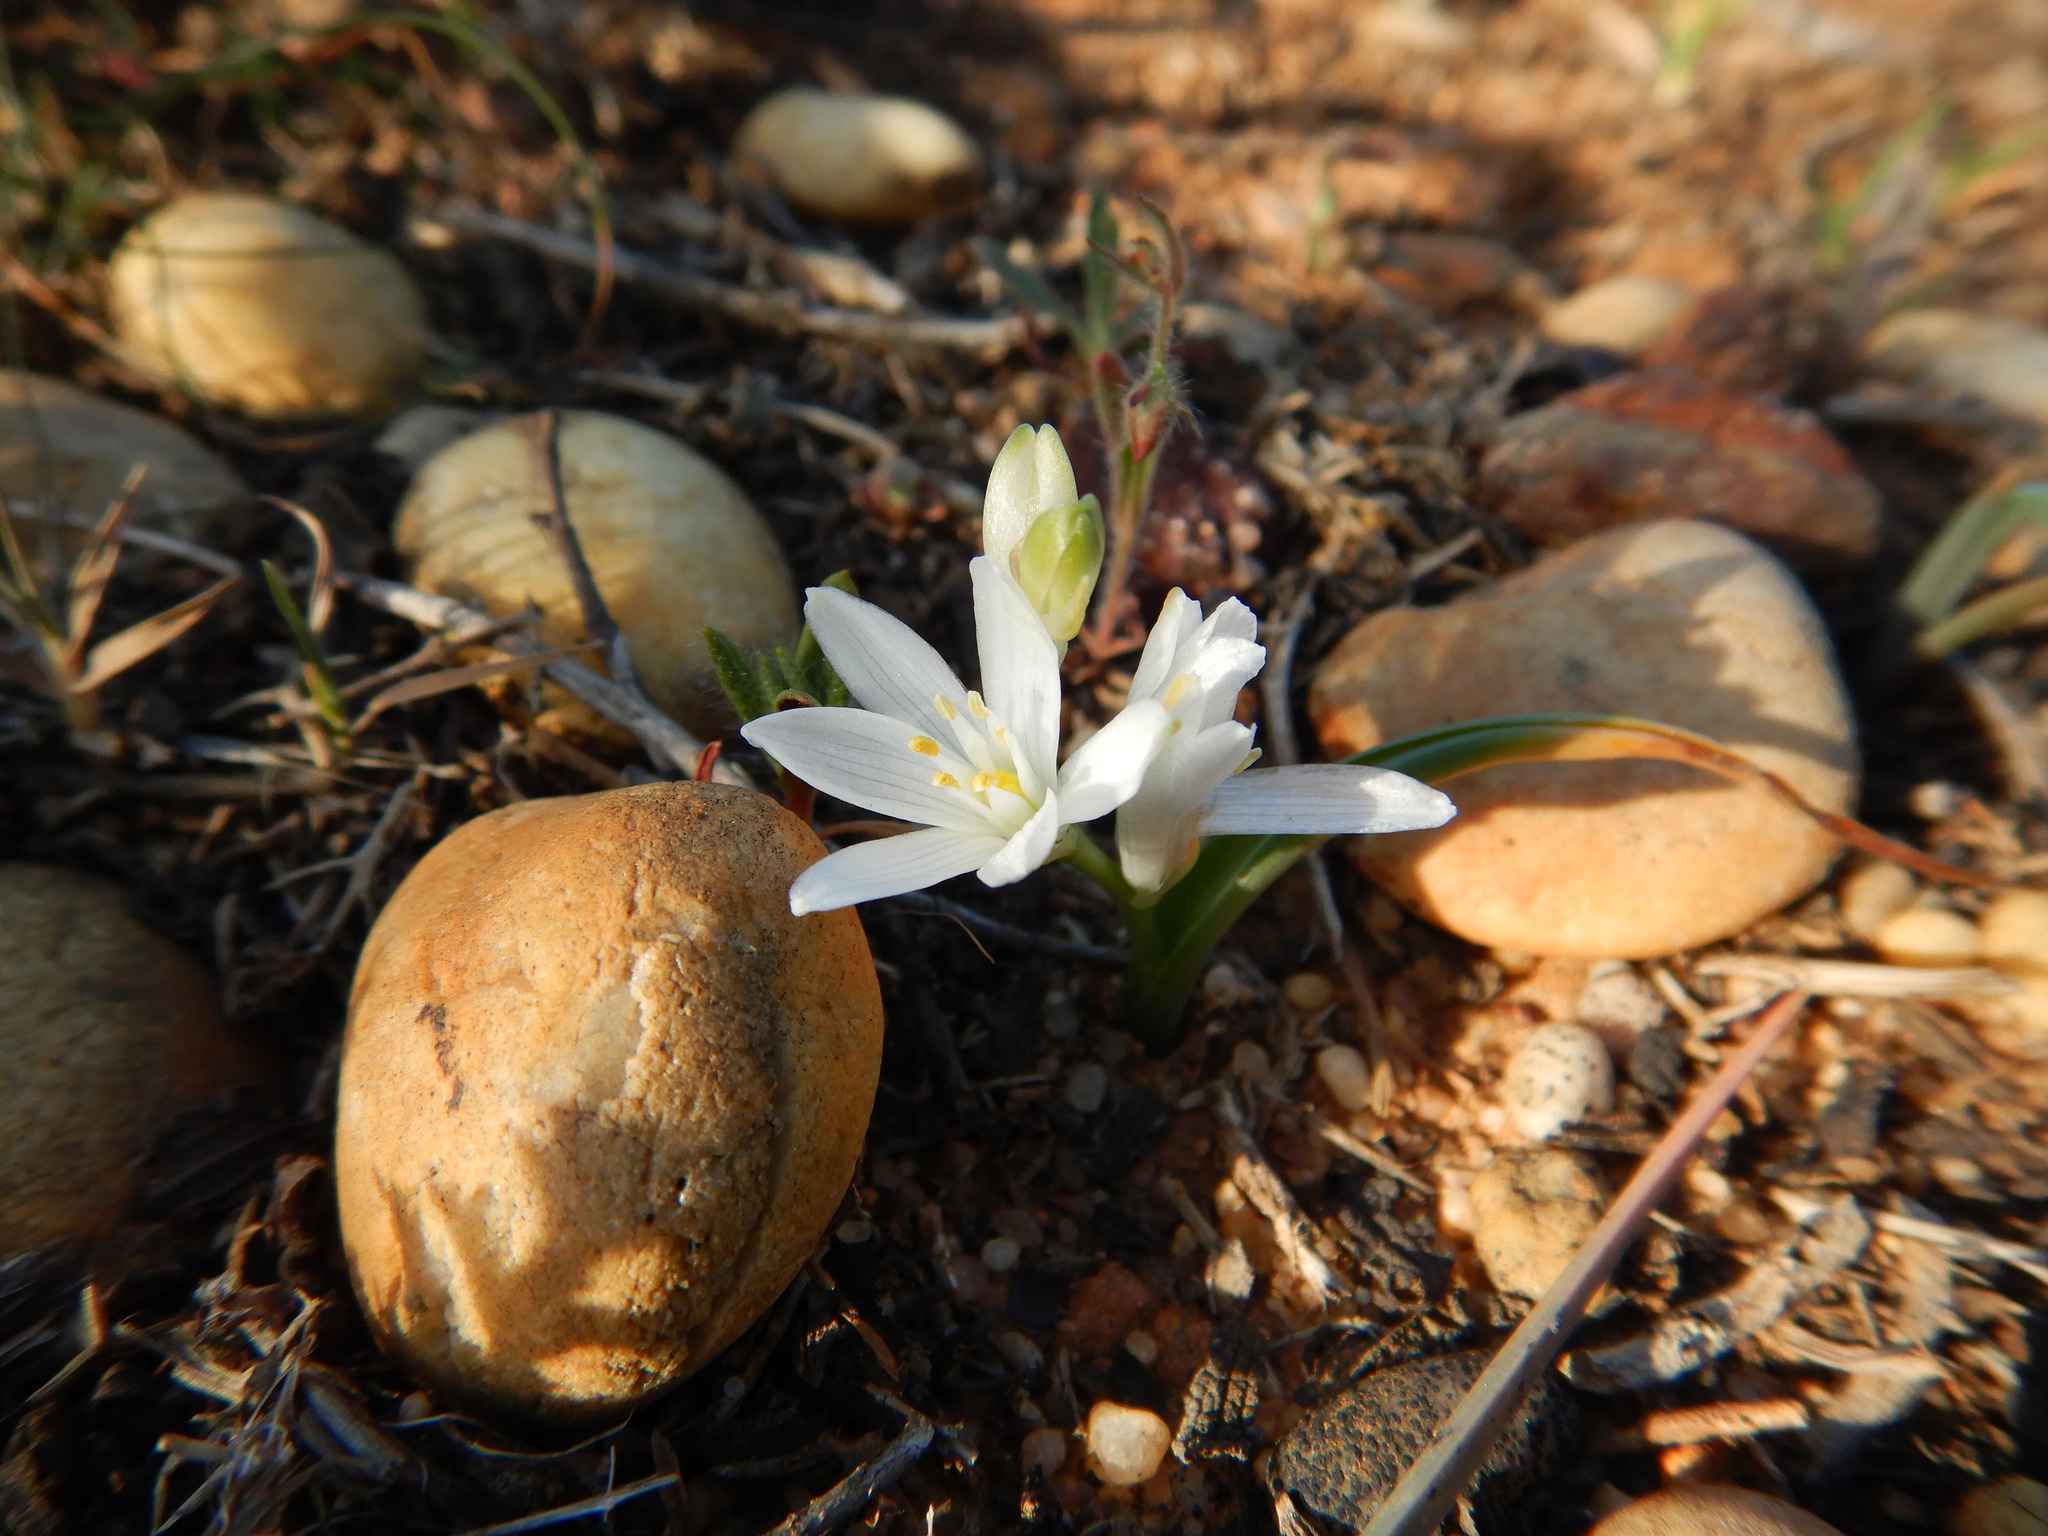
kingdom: Plantae
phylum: Tracheophyta
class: Liliopsida
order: Asparagales
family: Asparagaceae
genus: Ornithogalum
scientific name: Ornithogalum broteroi
